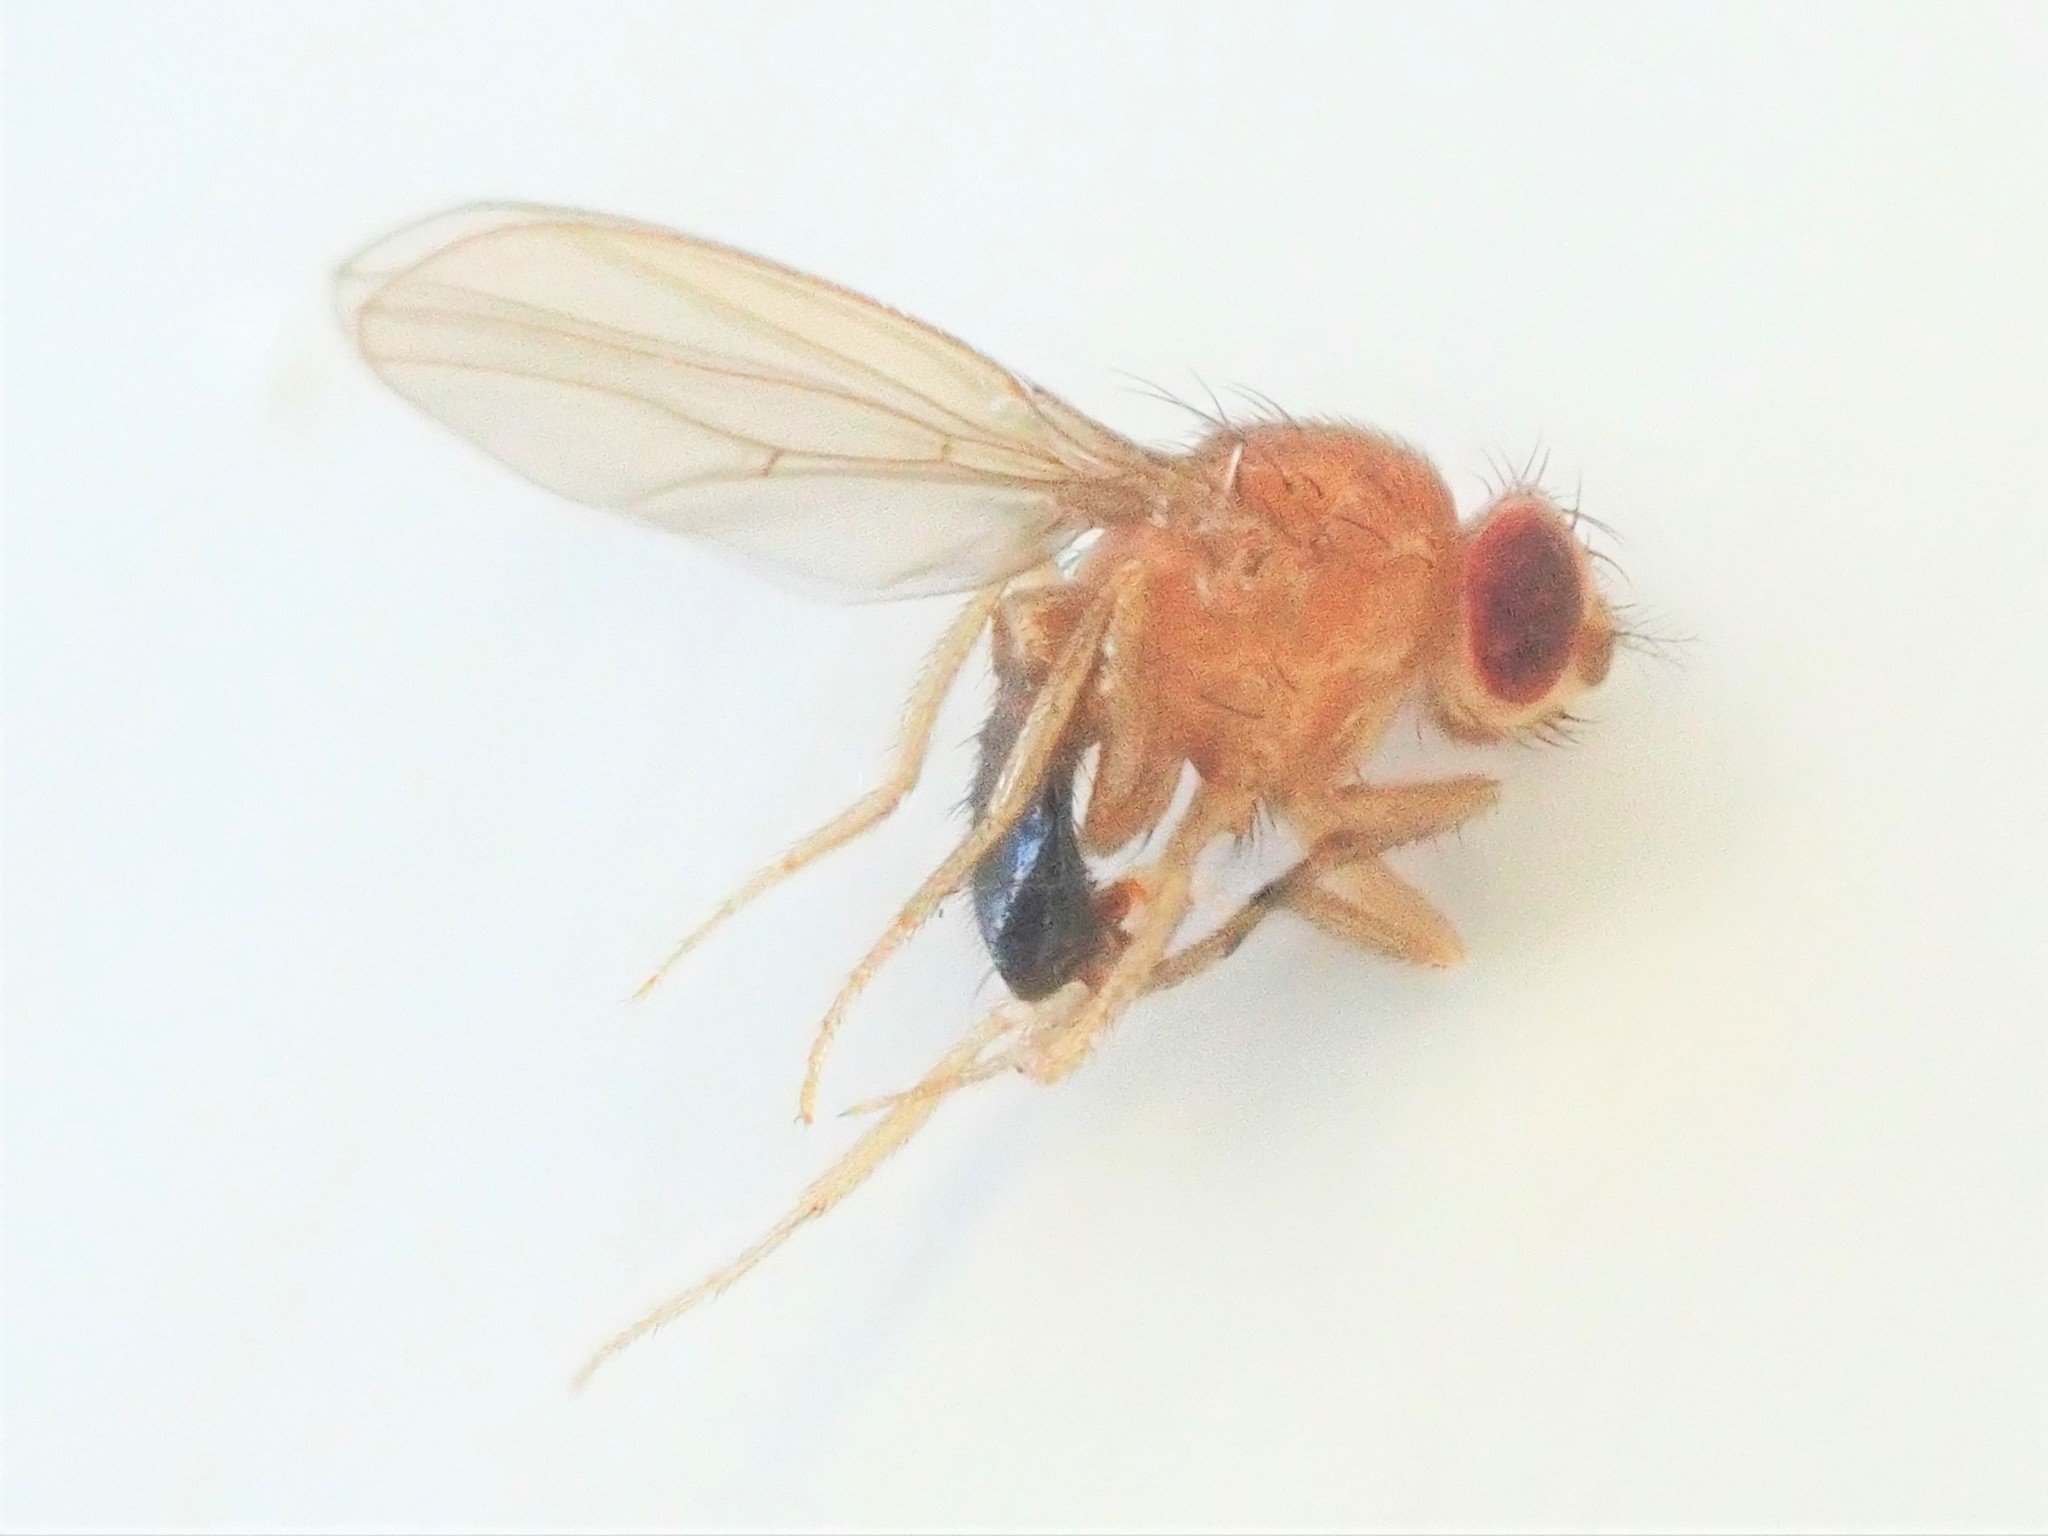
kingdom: Animalia
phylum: Arthropoda
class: Insecta
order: Diptera
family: Drosophilidae
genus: Sophophora
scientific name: Sophophora
